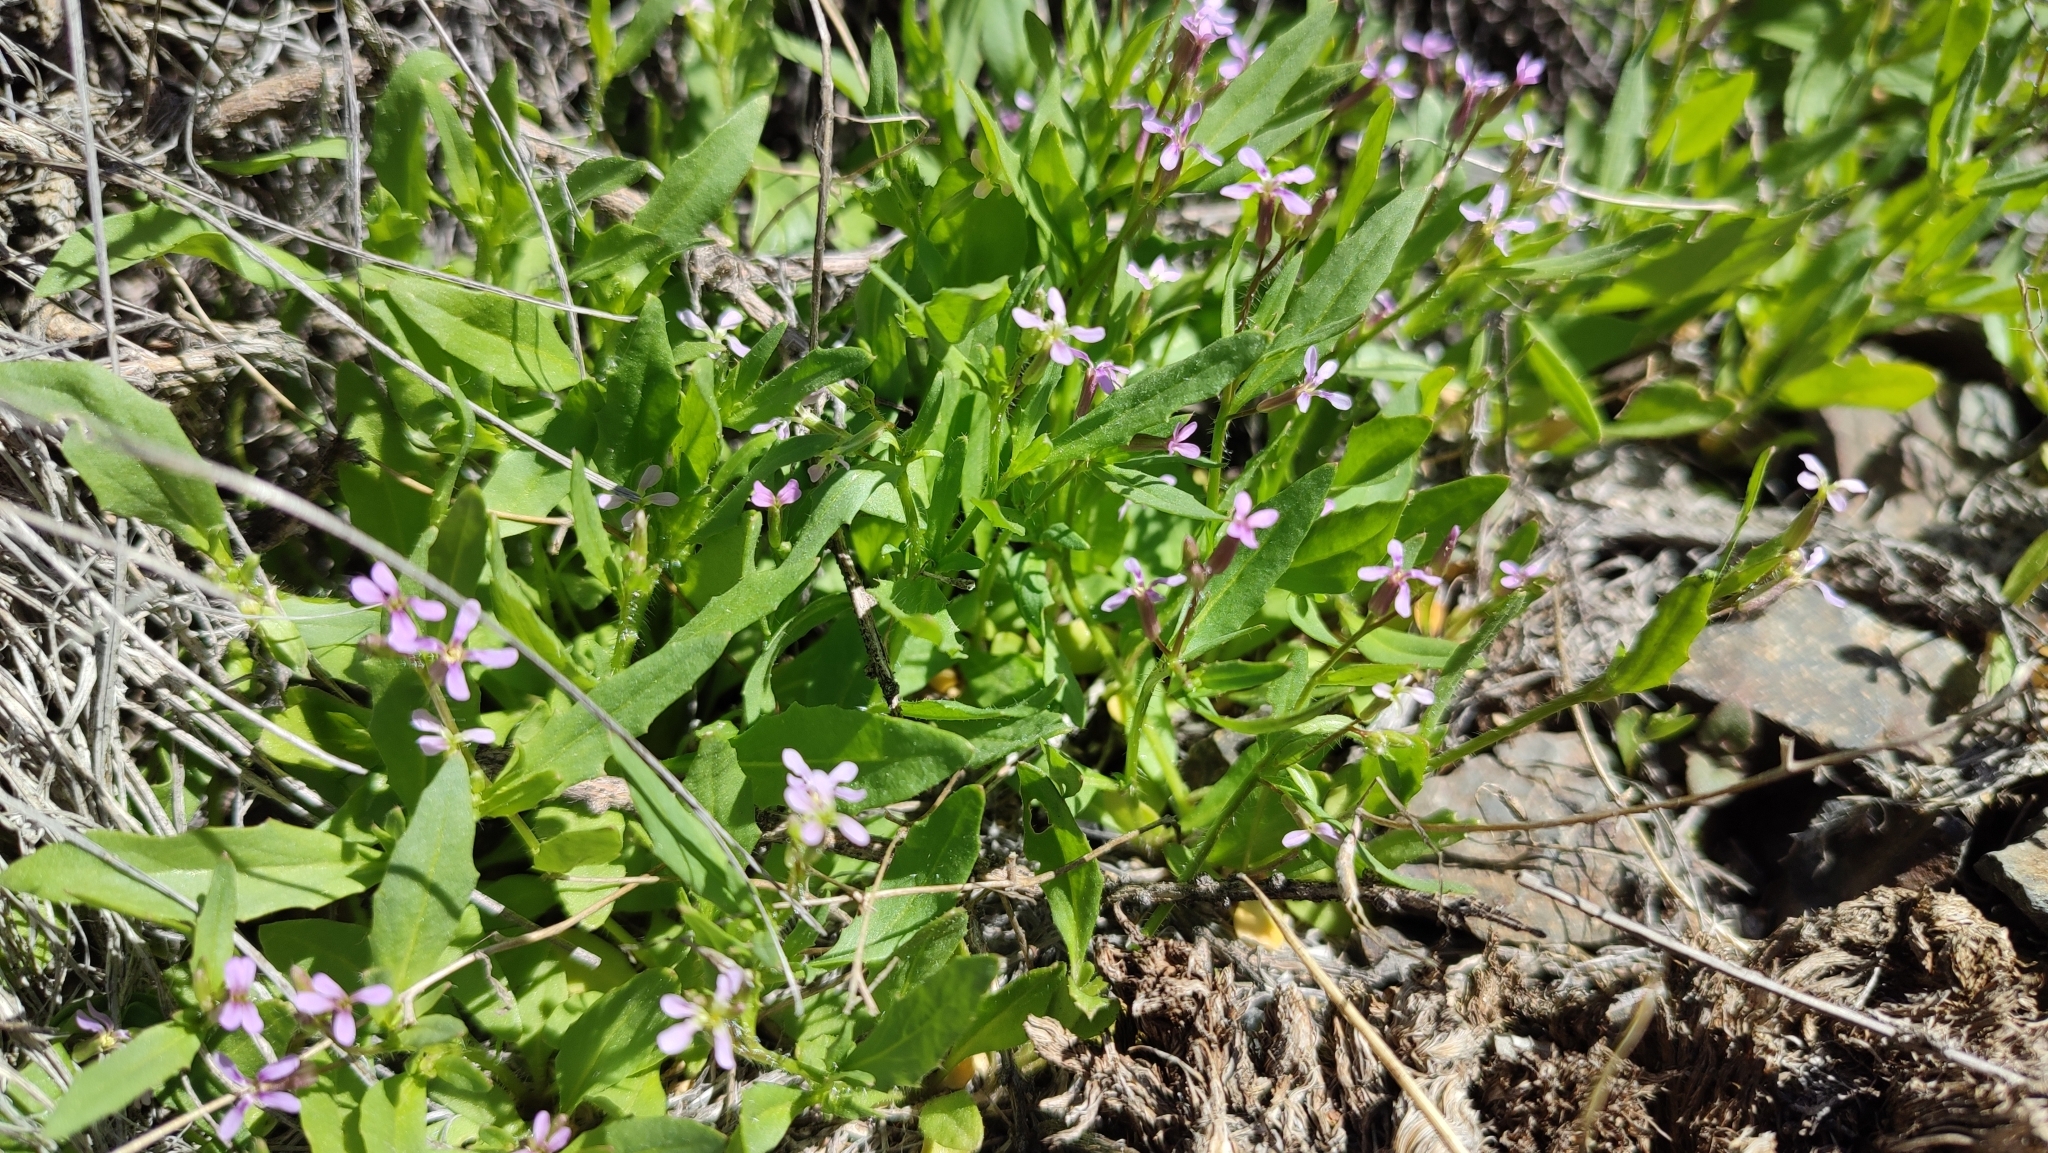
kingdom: Plantae
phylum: Tracheophyta
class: Magnoliopsida
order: Brassicales
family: Brassicaceae
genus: Chorispora
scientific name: Chorispora tenella
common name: Crossflower
